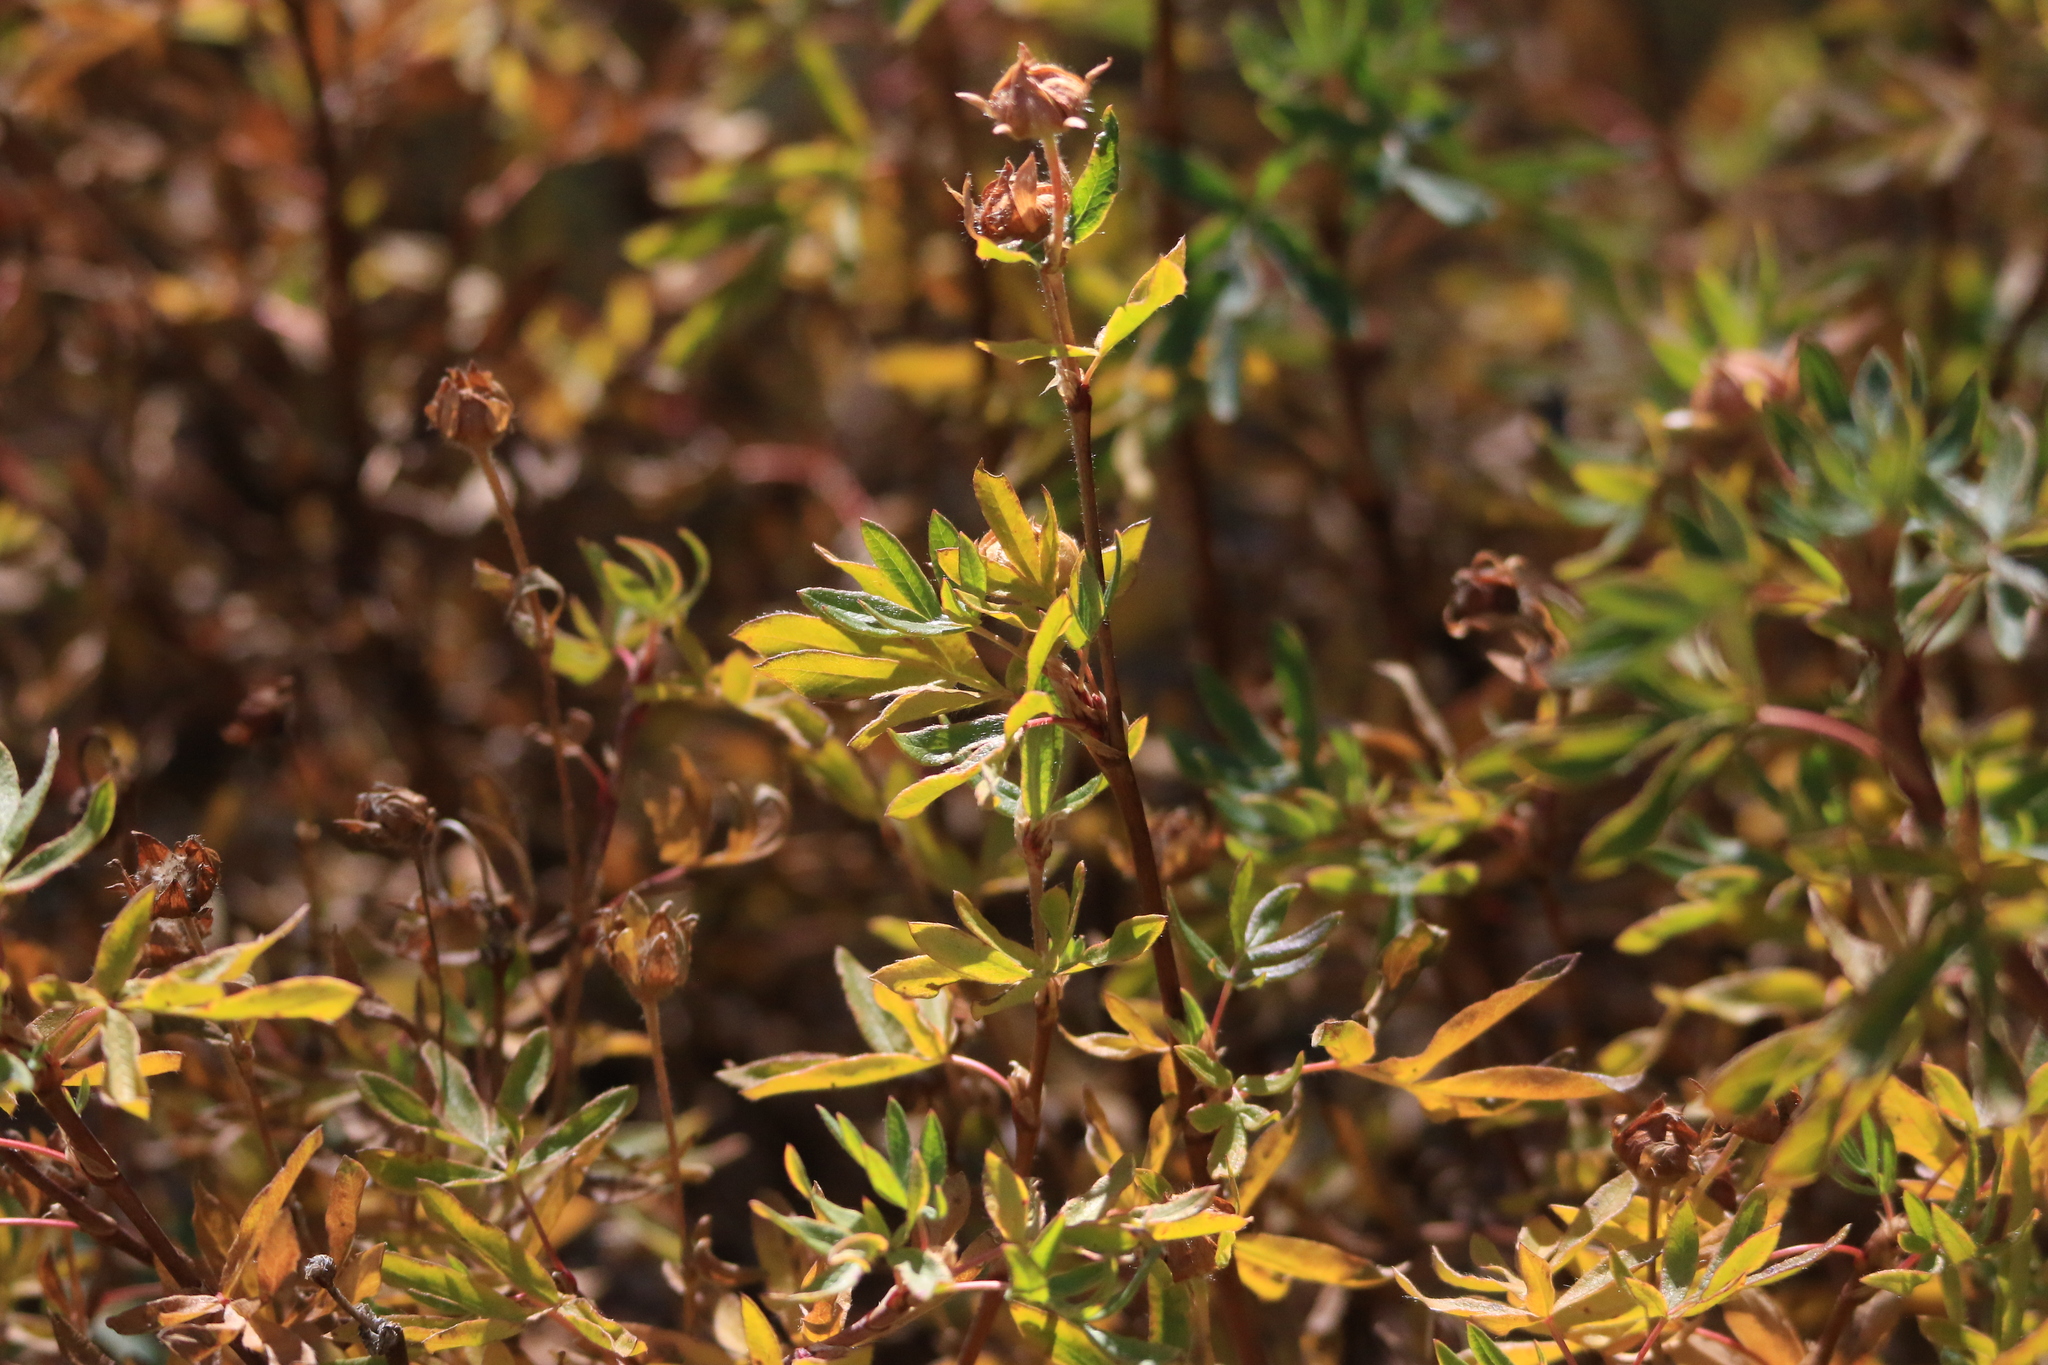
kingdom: Plantae
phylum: Tracheophyta
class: Magnoliopsida
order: Rosales
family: Rosaceae
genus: Dasiphora
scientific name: Dasiphora fruticosa
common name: Shrubby cinquefoil
